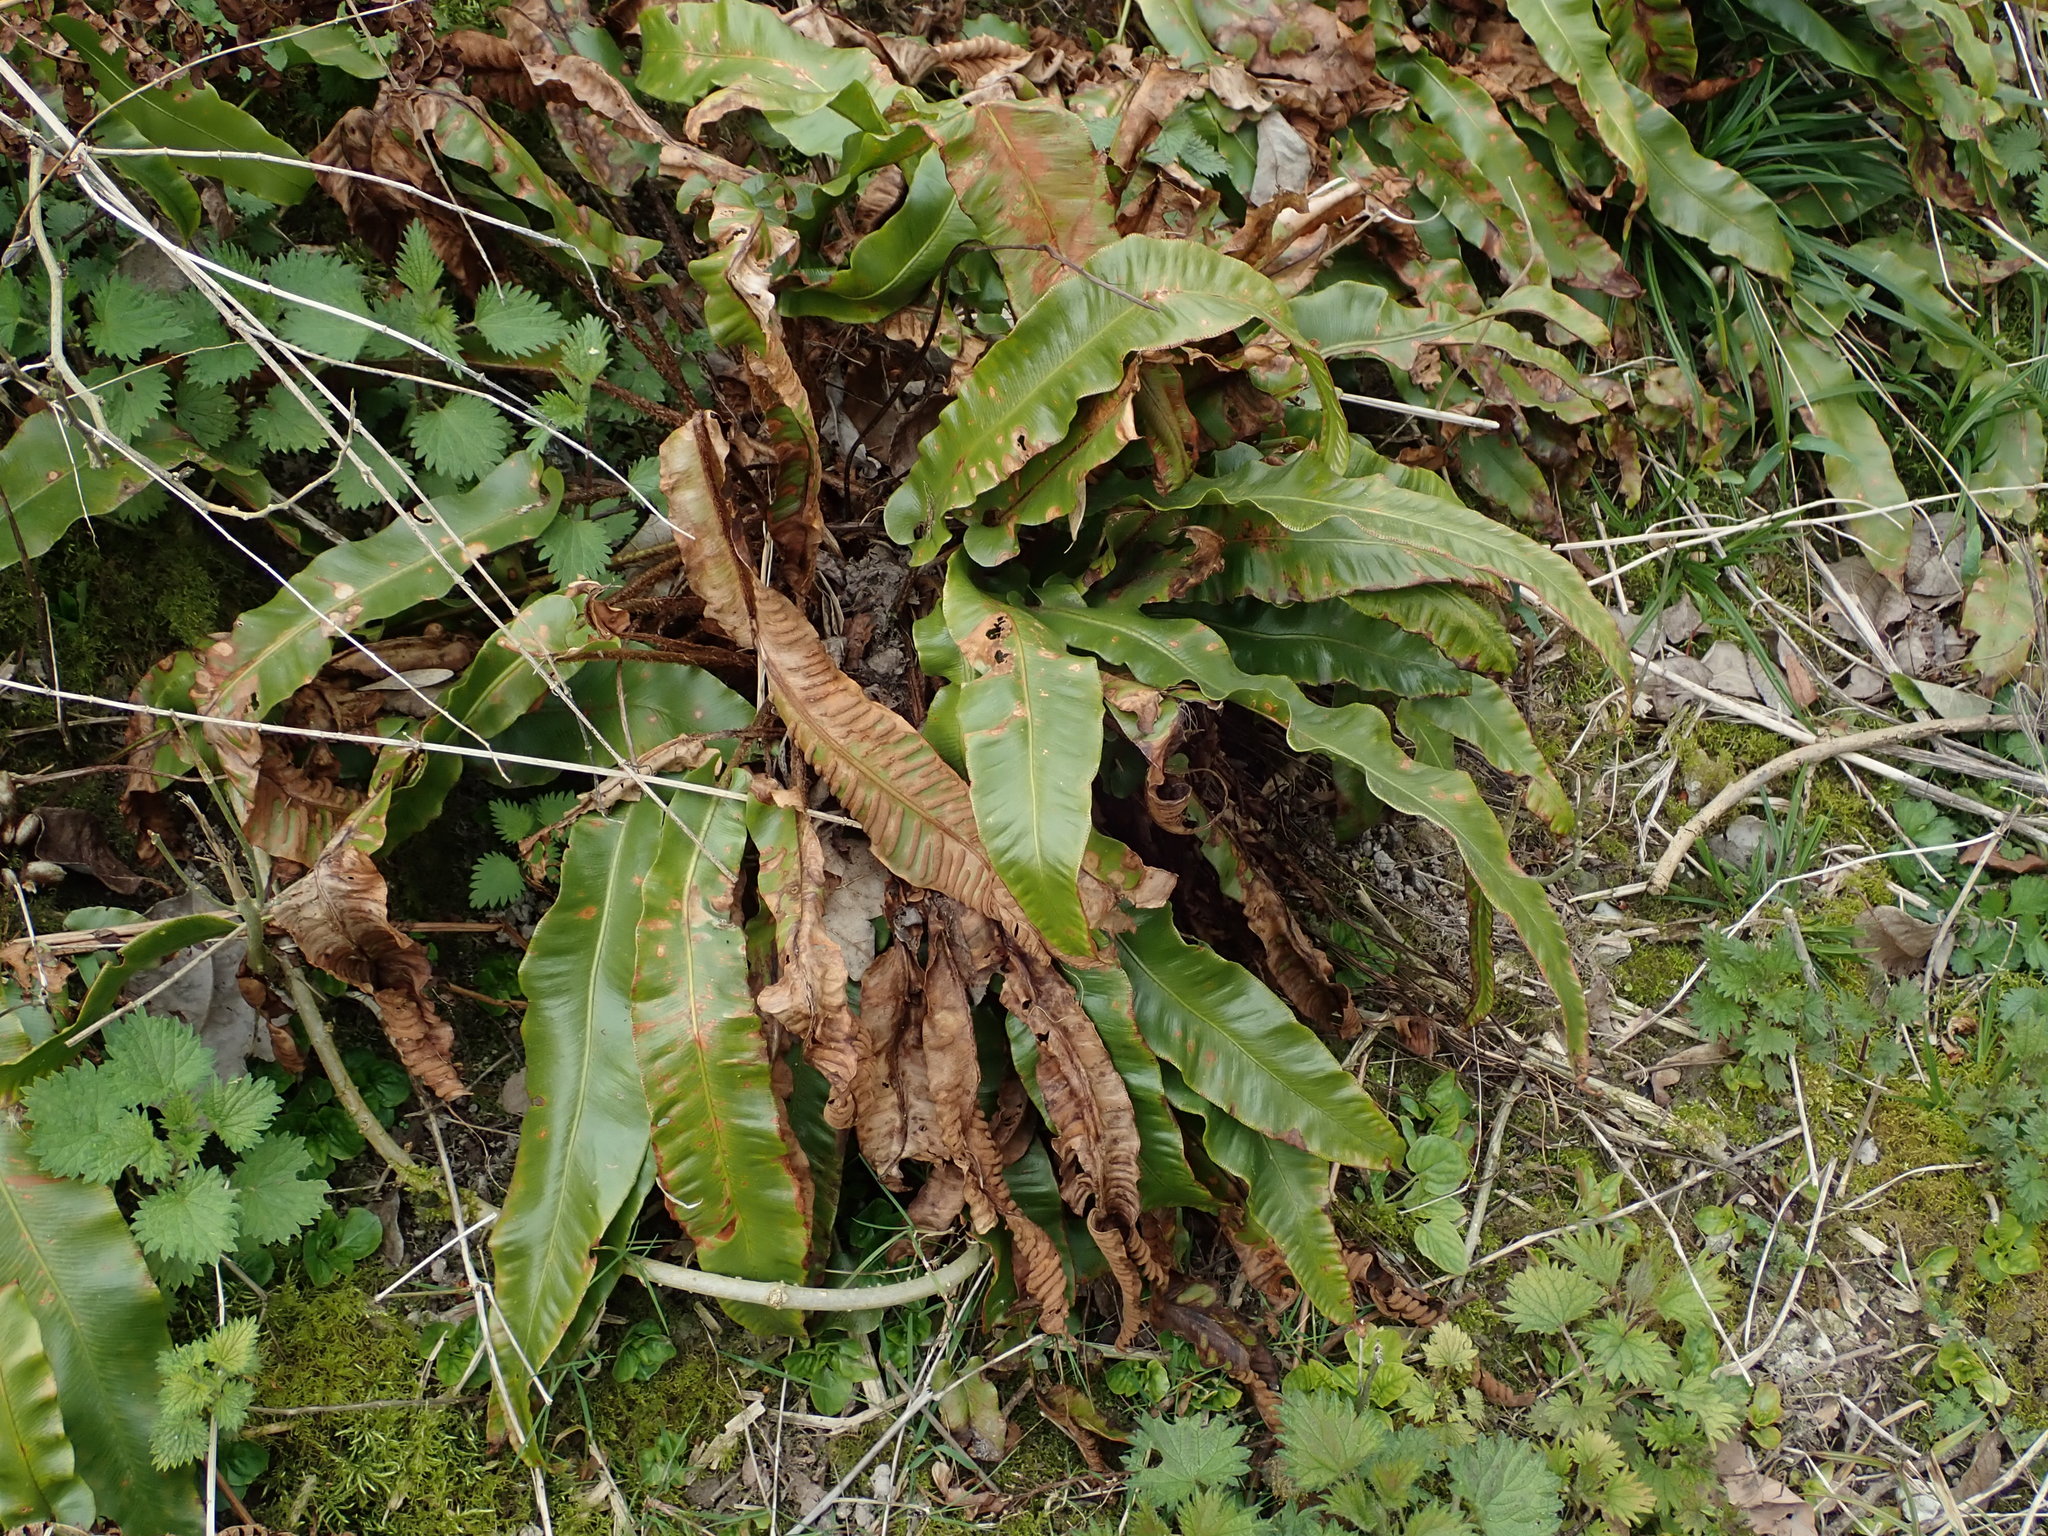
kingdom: Plantae
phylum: Tracheophyta
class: Polypodiopsida
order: Polypodiales
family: Aspleniaceae
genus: Asplenium
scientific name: Asplenium scolopendrium
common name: Hart's-tongue fern
